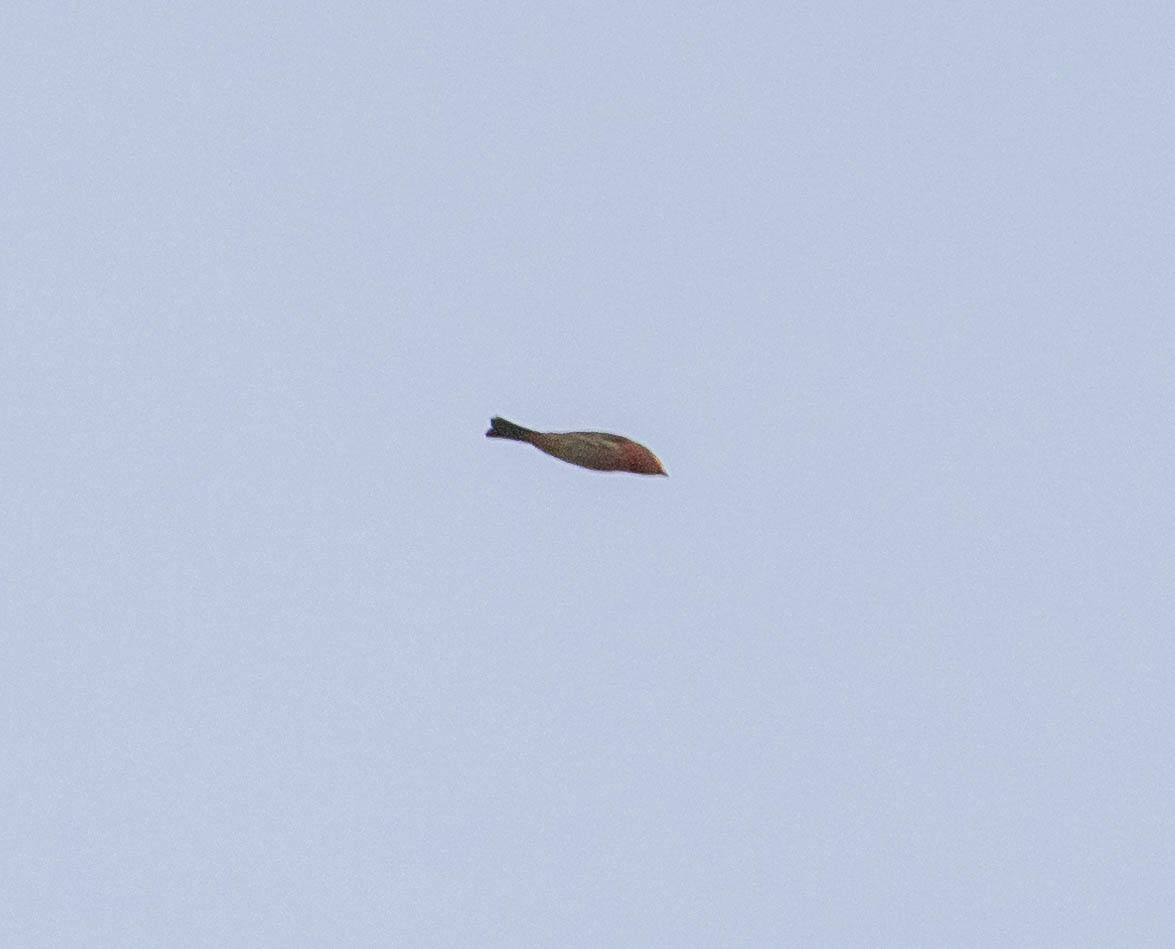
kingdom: Animalia
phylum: Chordata
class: Aves
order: Passeriformes
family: Fringillidae
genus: Haemorhous
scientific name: Haemorhous mexicanus
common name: House finch
